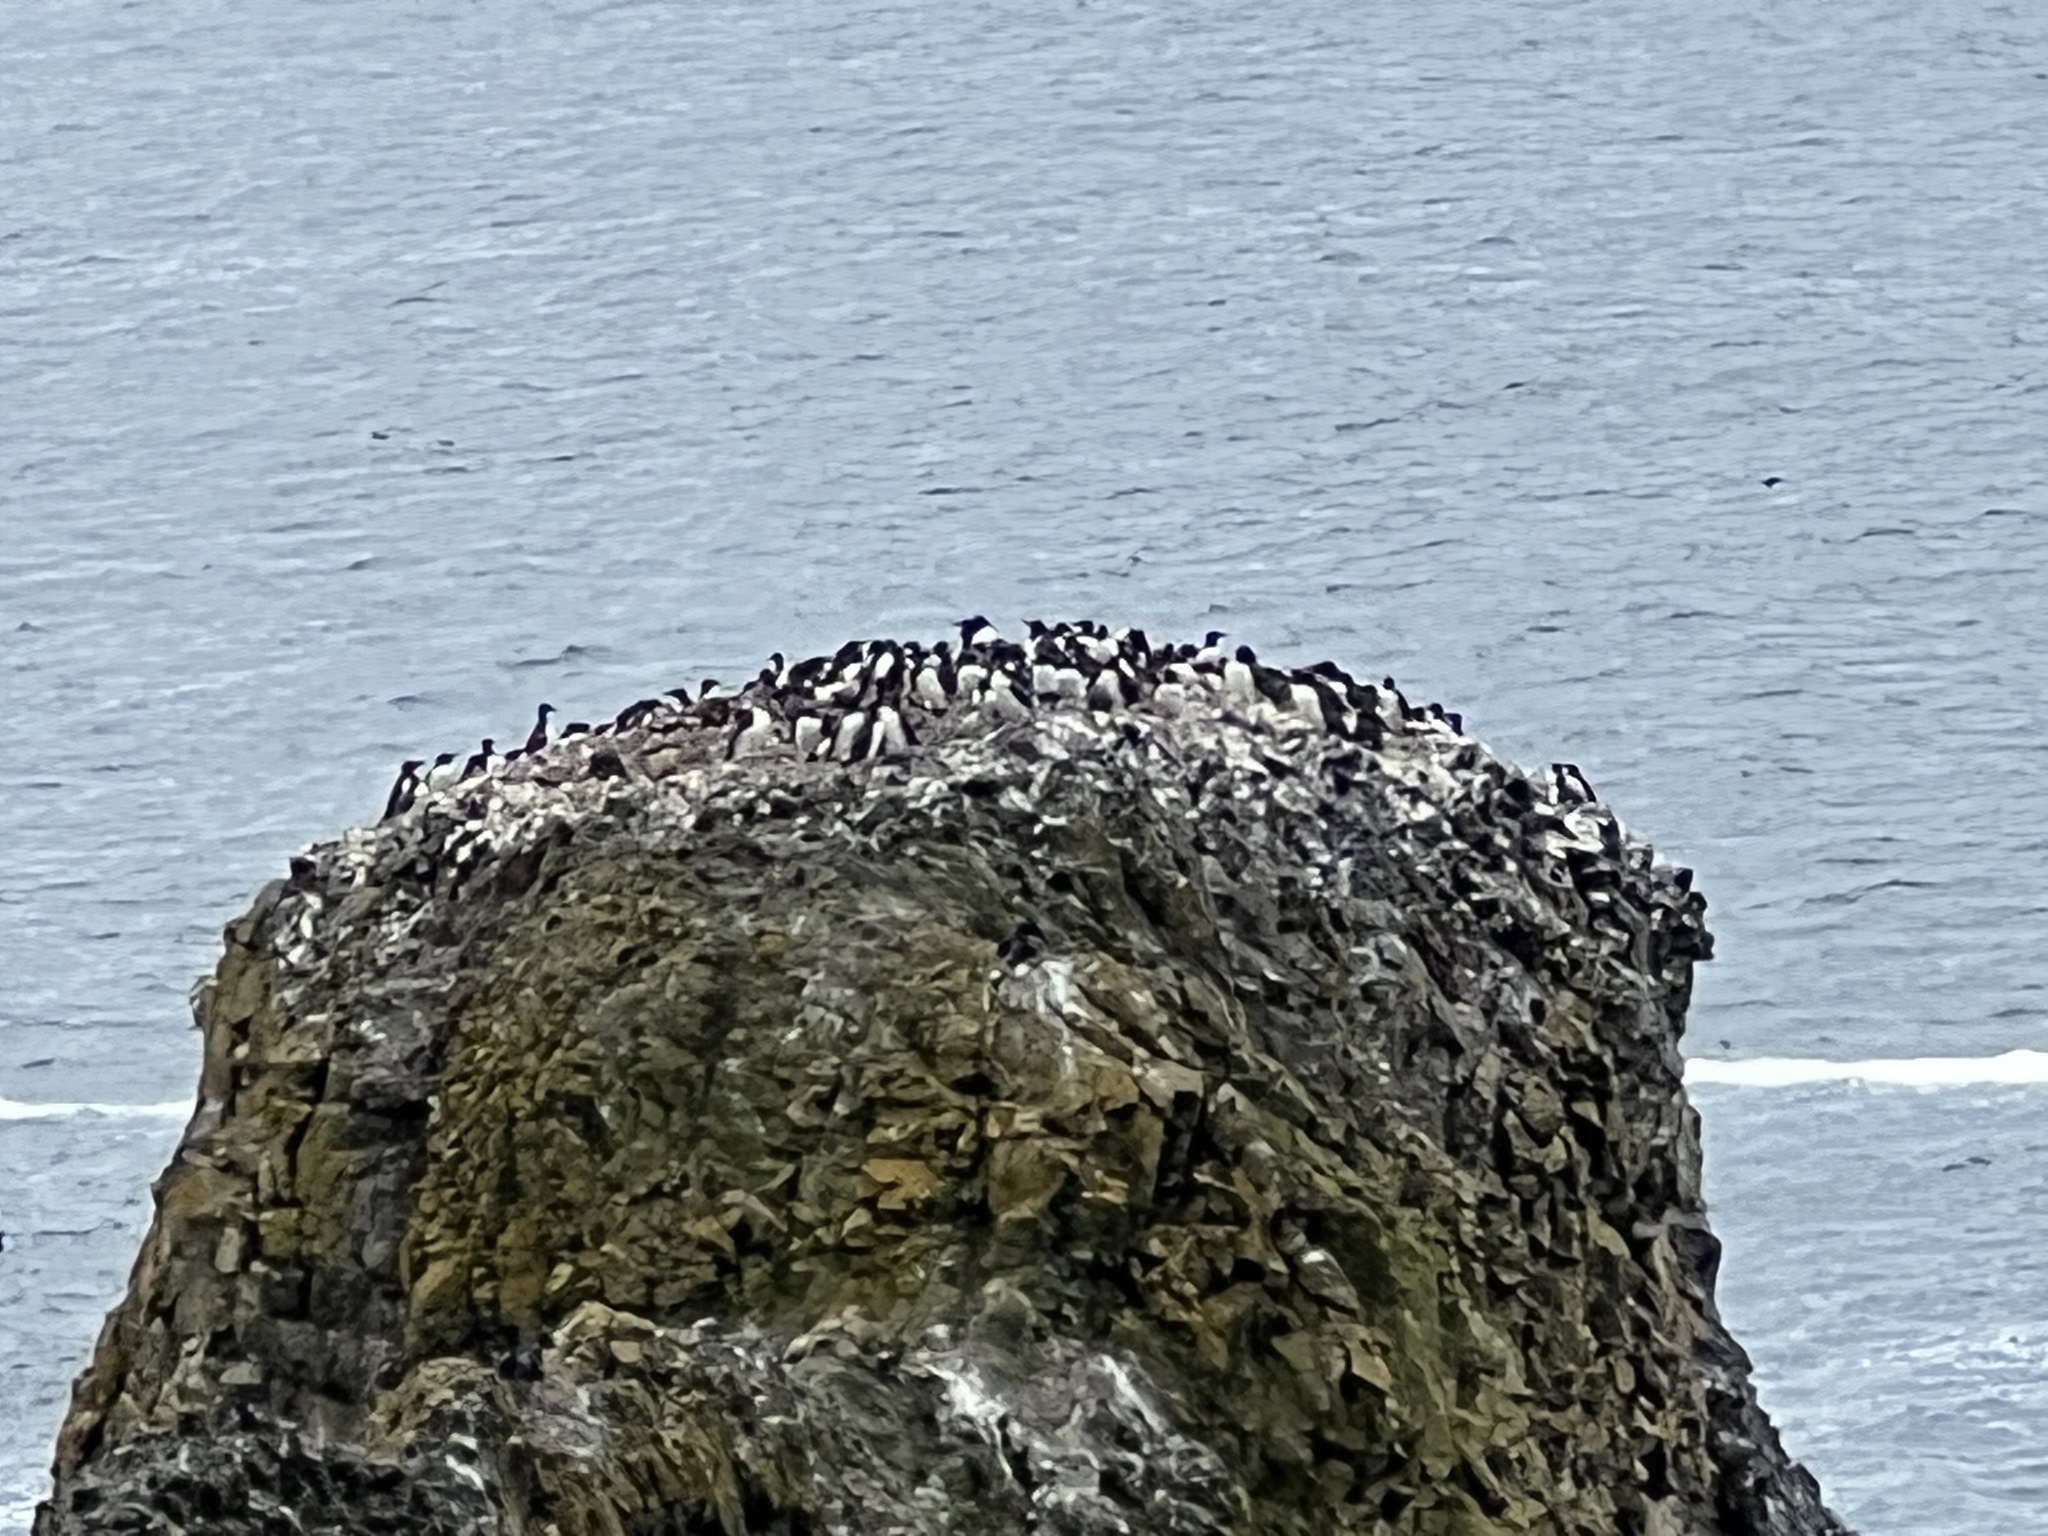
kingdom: Animalia
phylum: Chordata
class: Aves
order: Charadriiformes
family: Alcidae
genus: Uria
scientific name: Uria aalge
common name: Common murre
